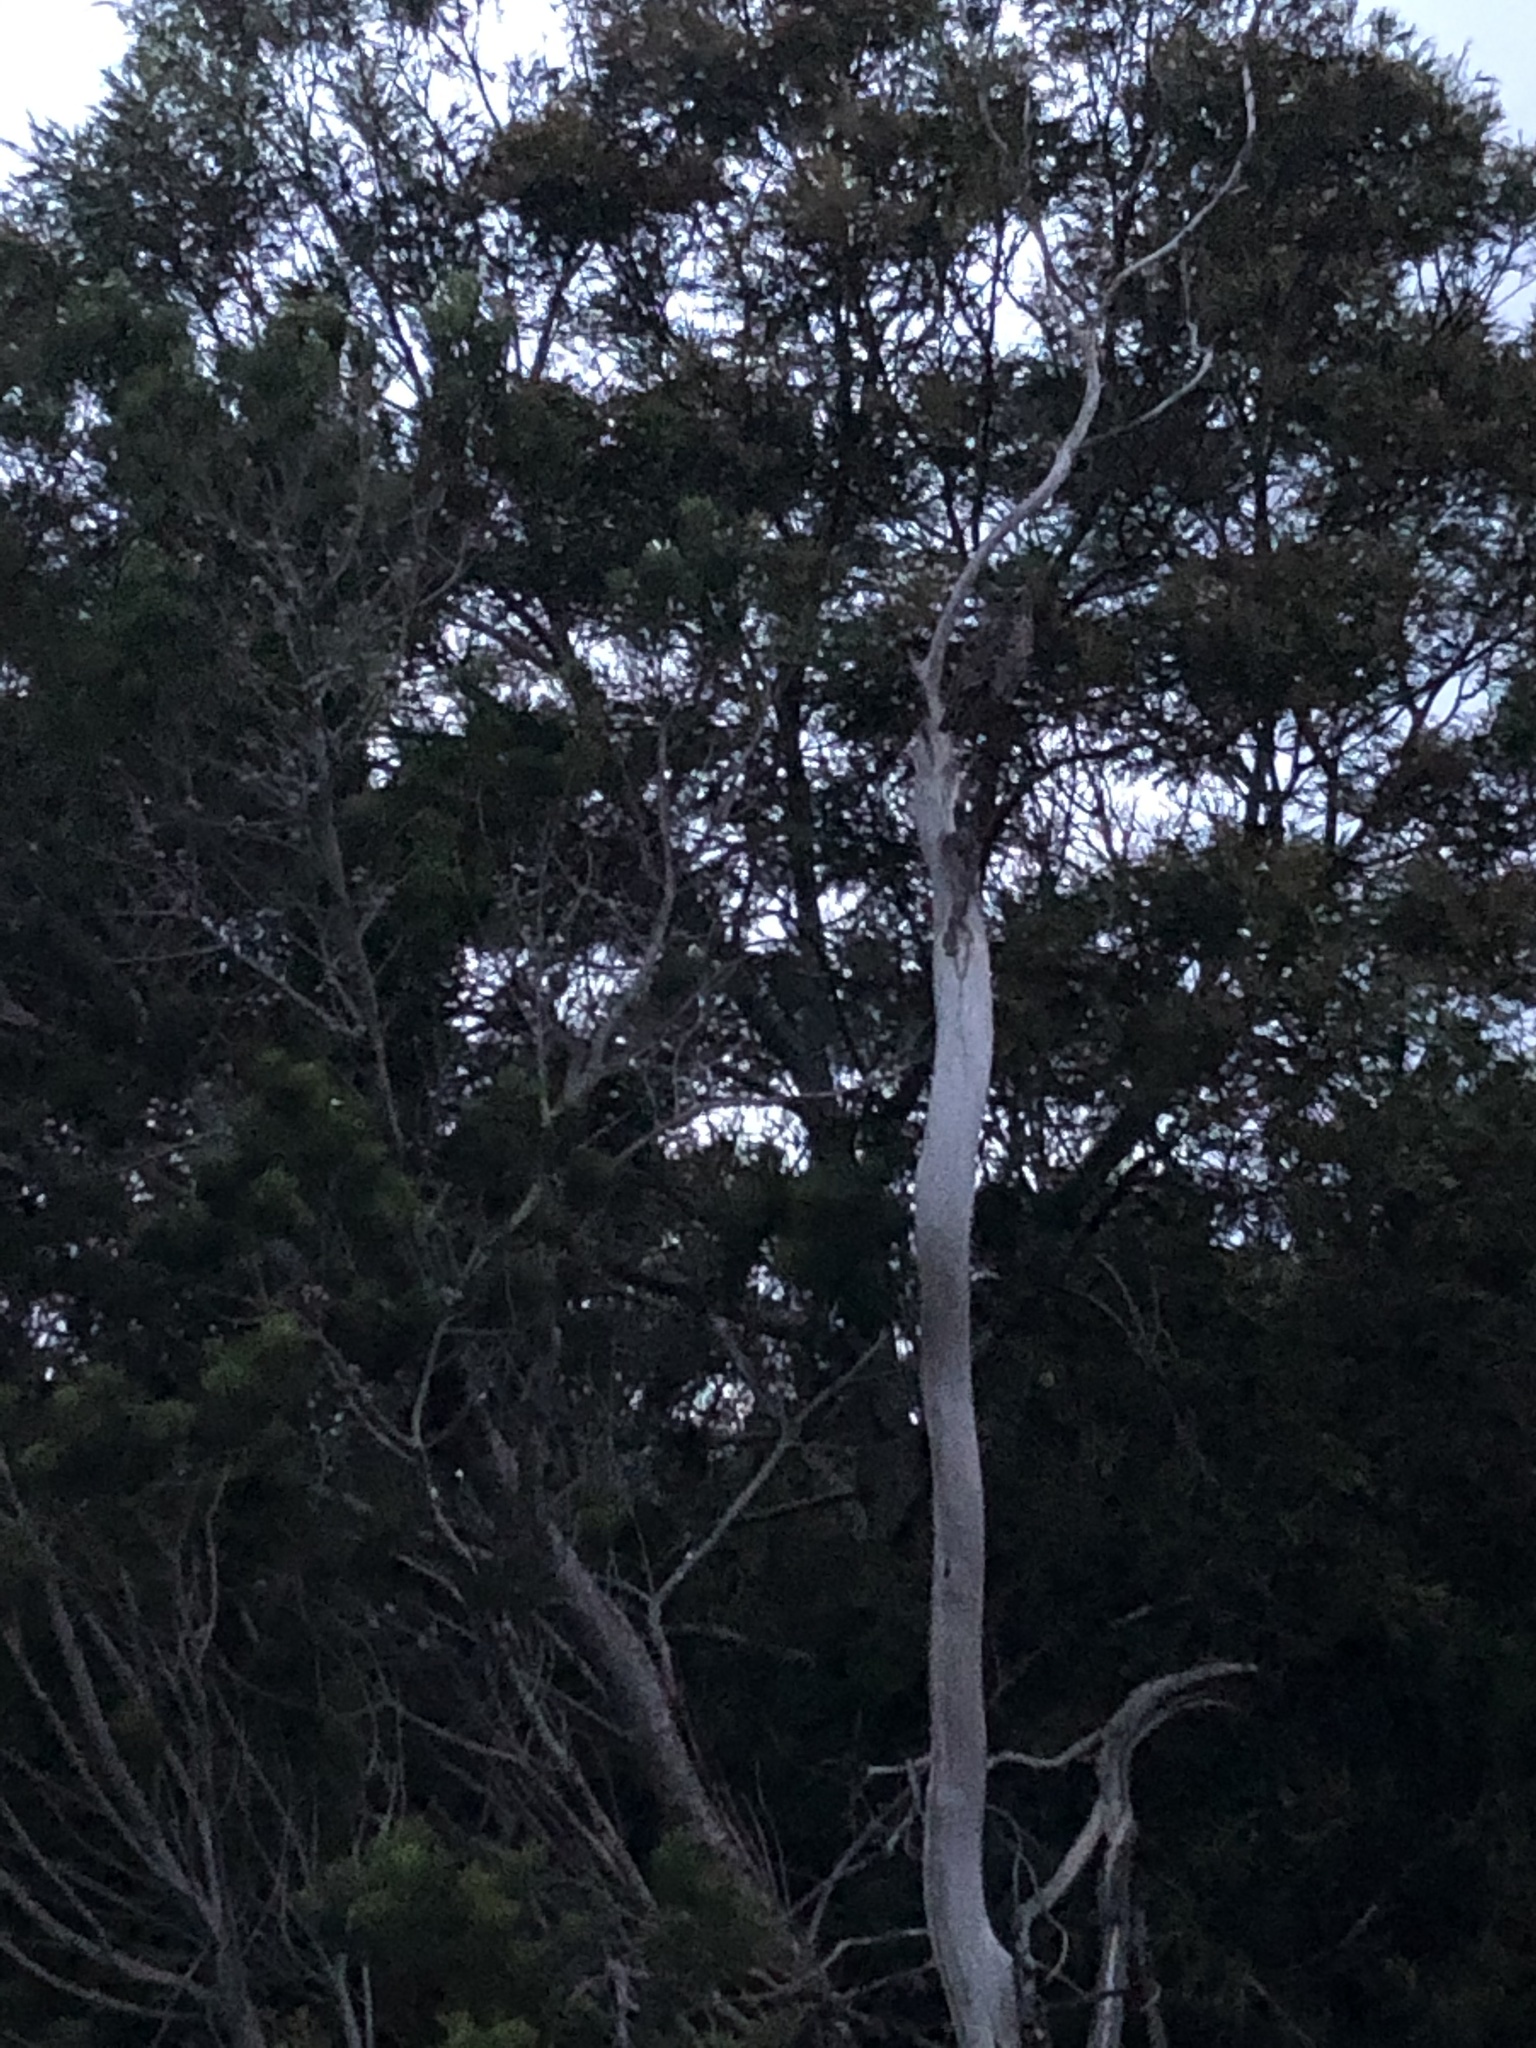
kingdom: Animalia
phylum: Chordata
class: Aves
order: Strigiformes
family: Strigidae
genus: Bubo
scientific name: Bubo africanus
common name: Spotted eagle-owl
